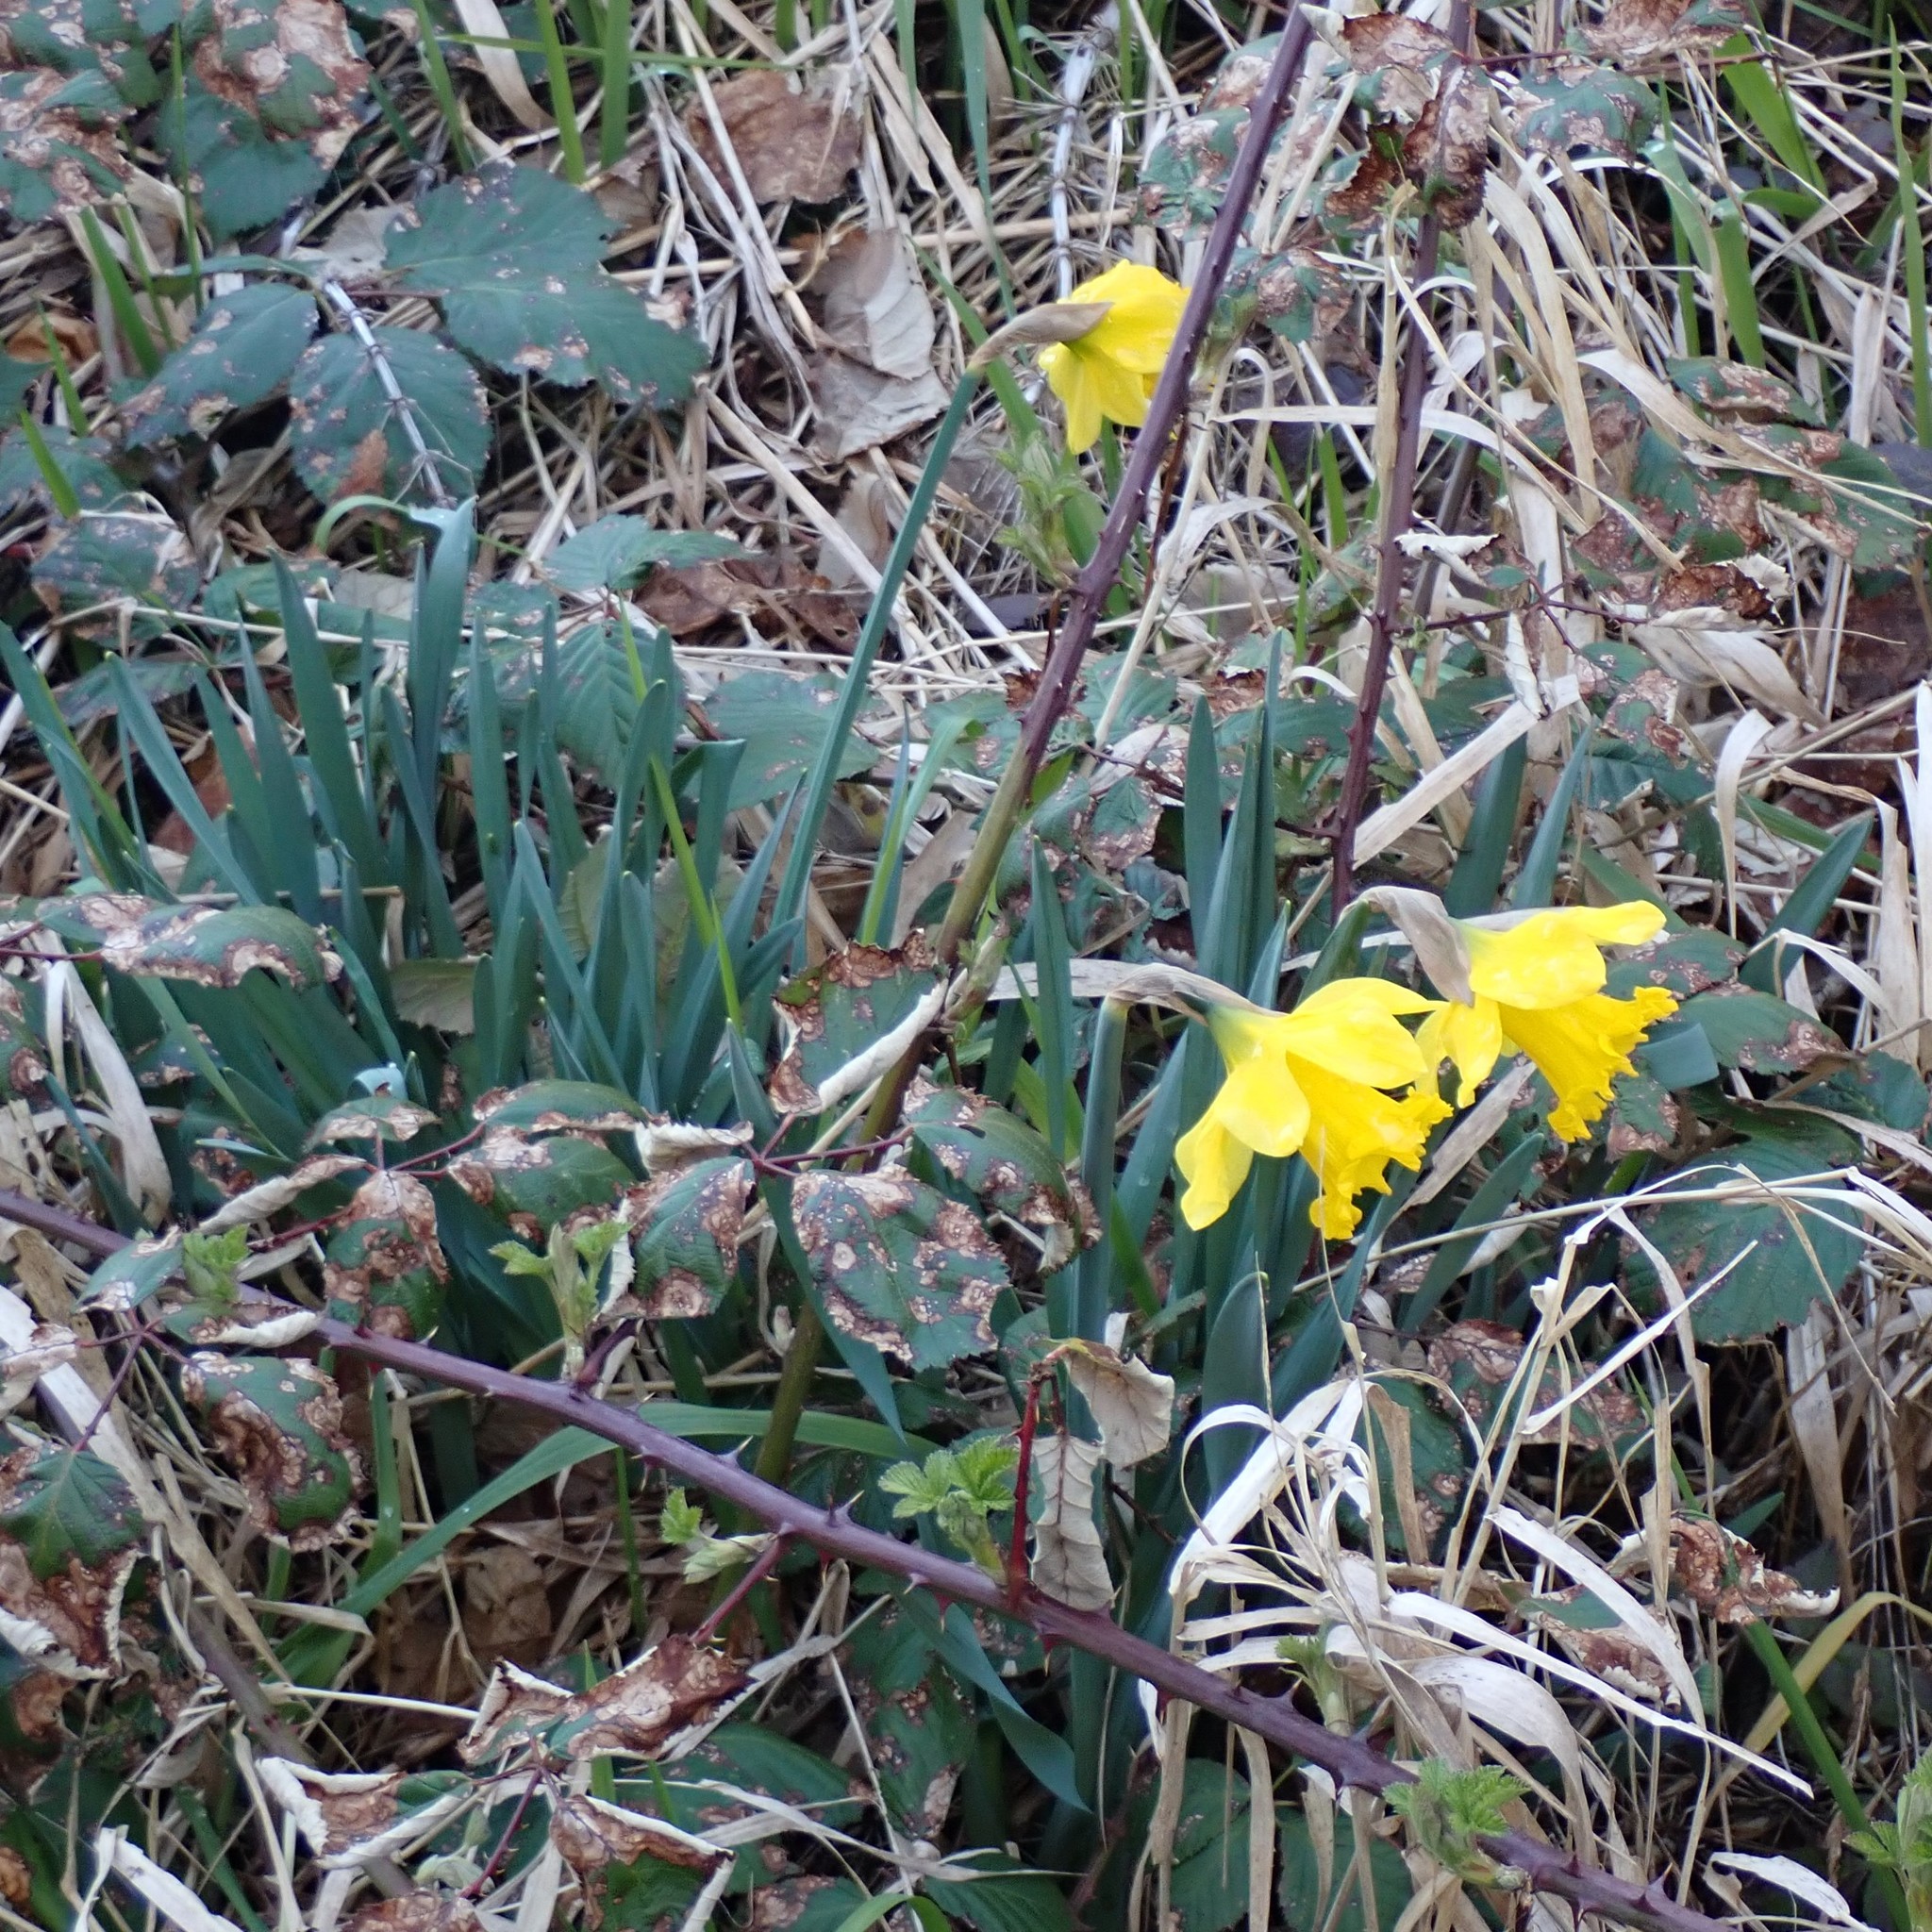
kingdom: Plantae
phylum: Tracheophyta
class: Liliopsida
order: Asparagales
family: Amaryllidaceae
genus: Narcissus
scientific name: Narcissus pseudonarcissus
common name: Daffodil
